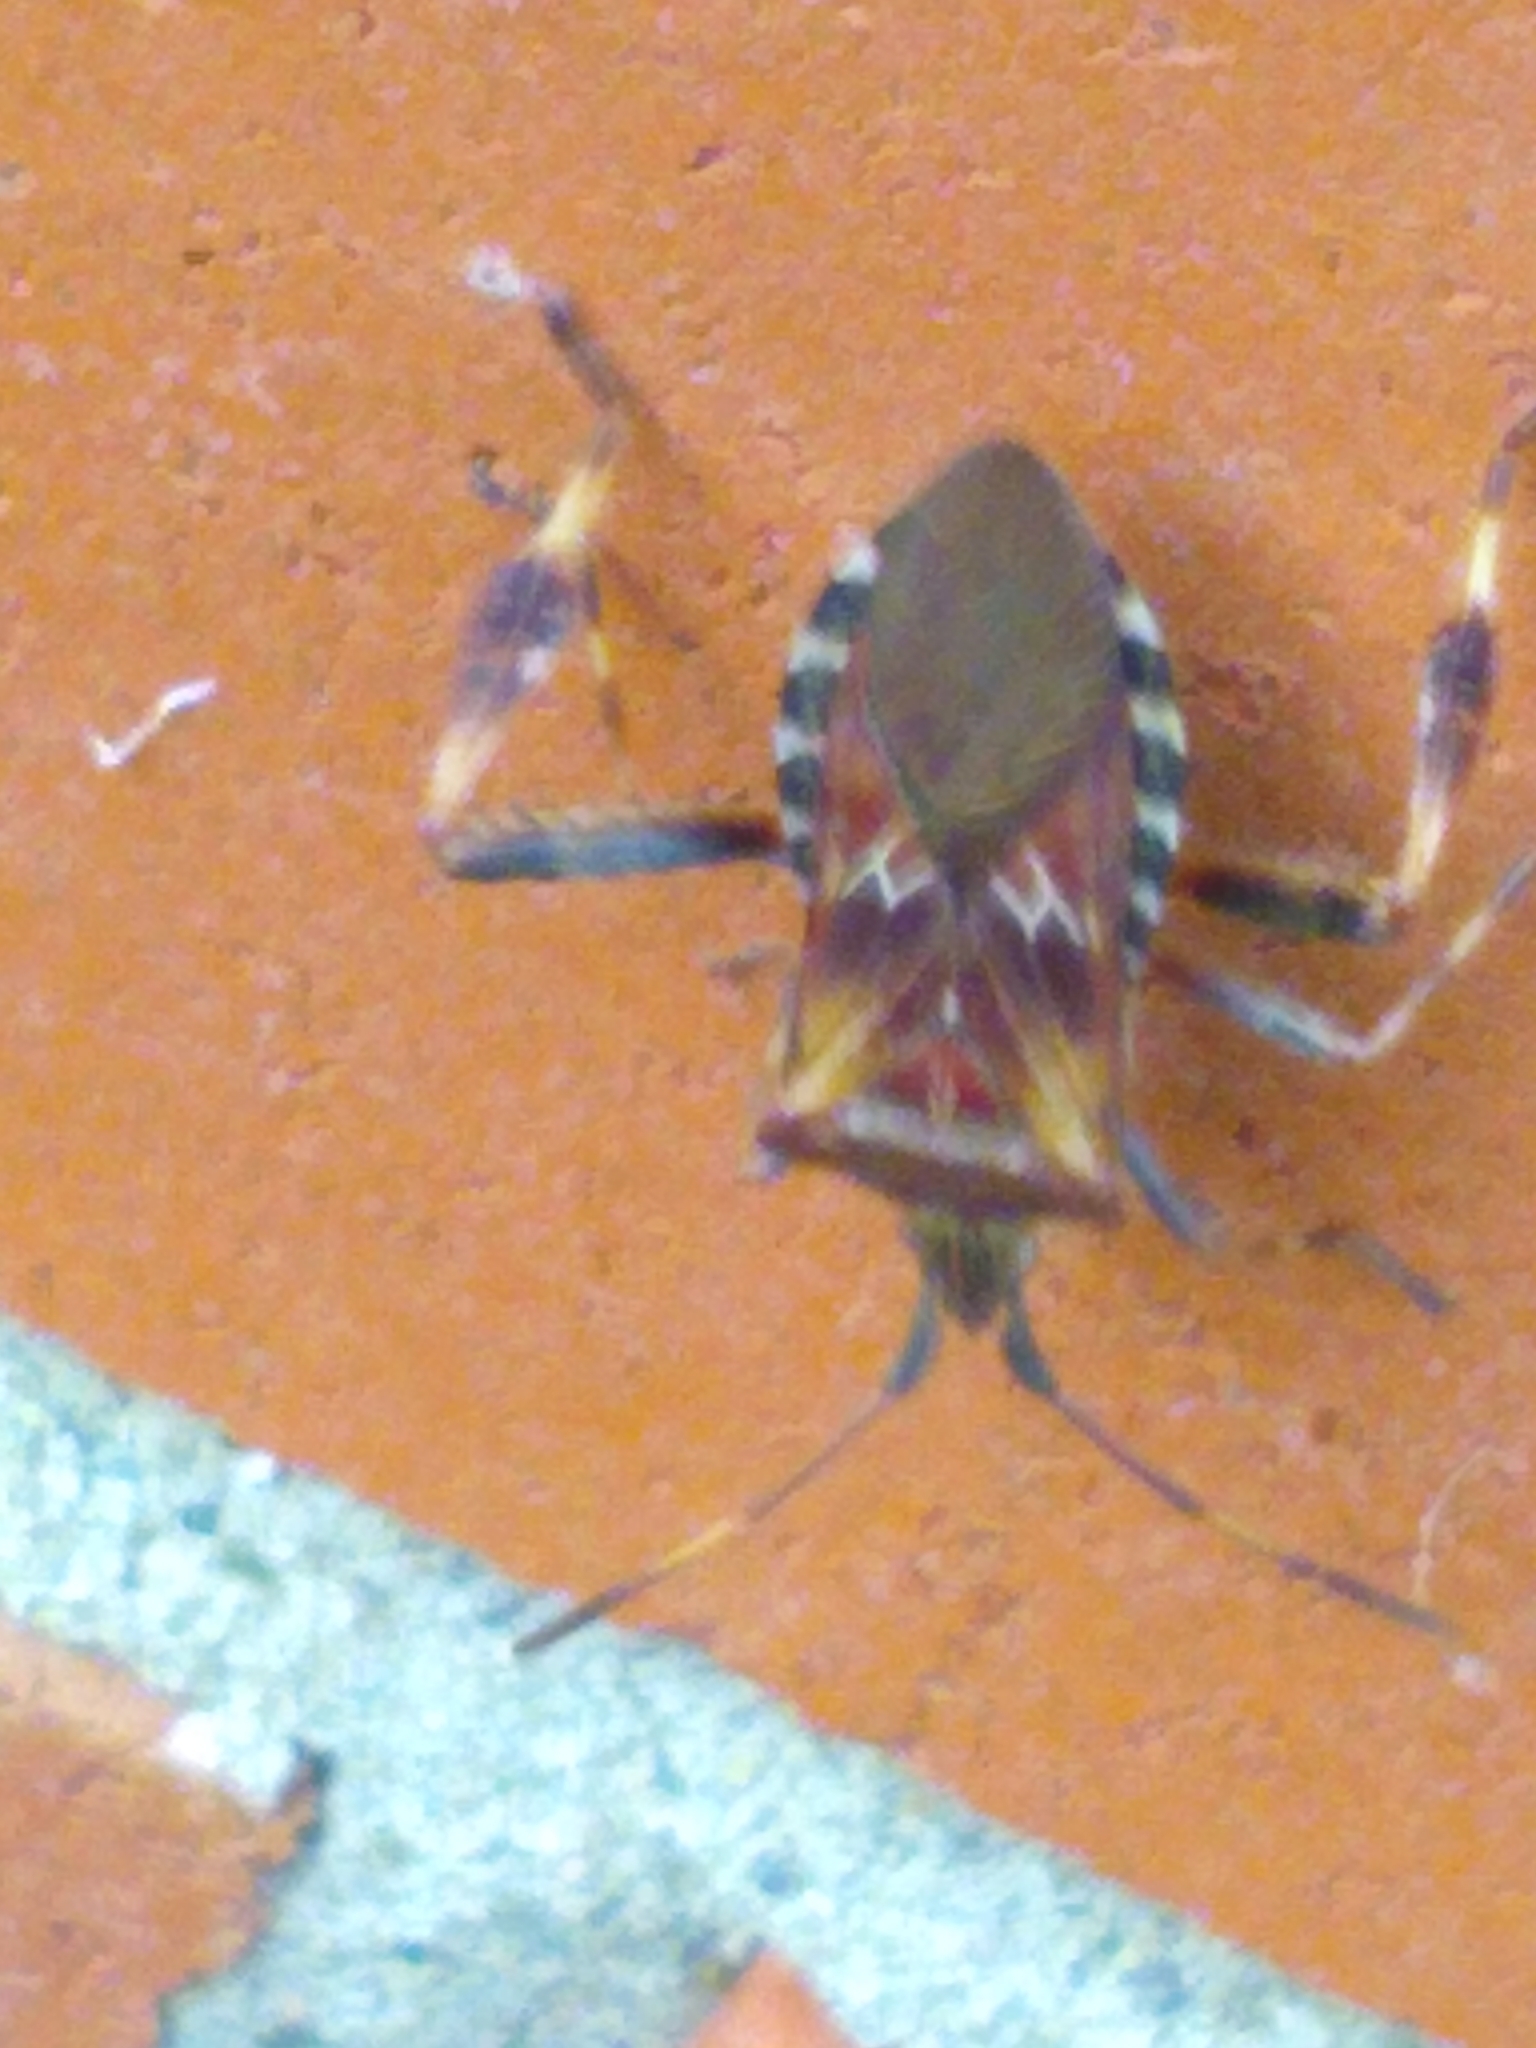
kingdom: Animalia
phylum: Arthropoda
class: Insecta
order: Hemiptera
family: Coreidae
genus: Leptoglossus
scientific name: Leptoglossus occidentalis
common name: Western conifer-seed bug
